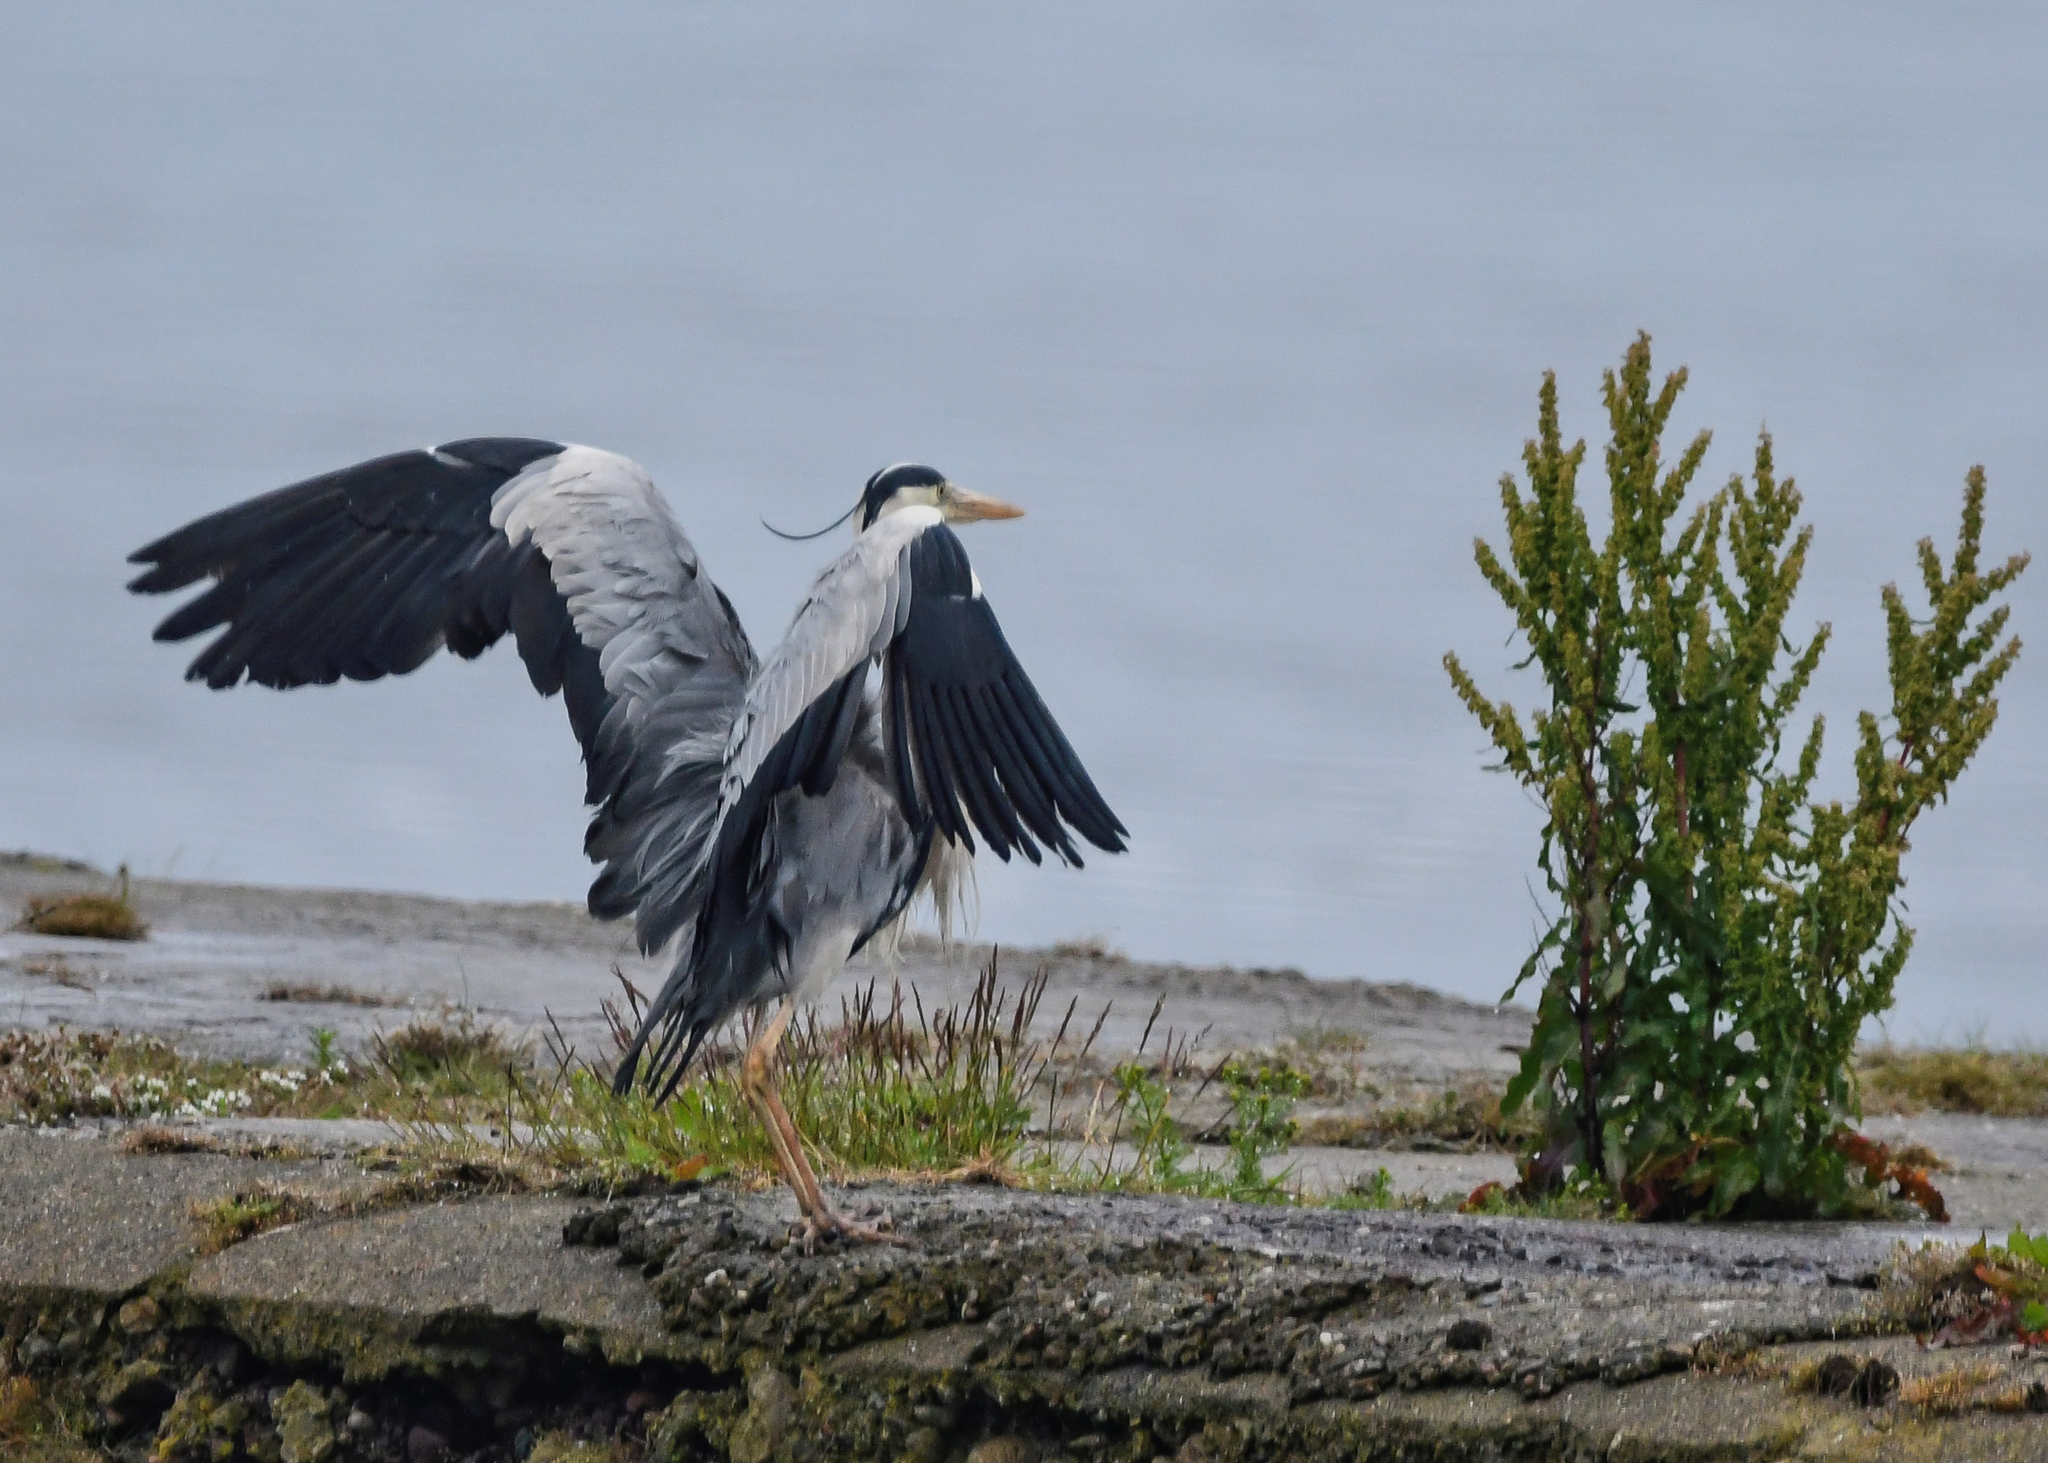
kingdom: Animalia
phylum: Chordata
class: Aves
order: Pelecaniformes
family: Ardeidae
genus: Ardea
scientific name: Ardea cinerea
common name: Grey heron
